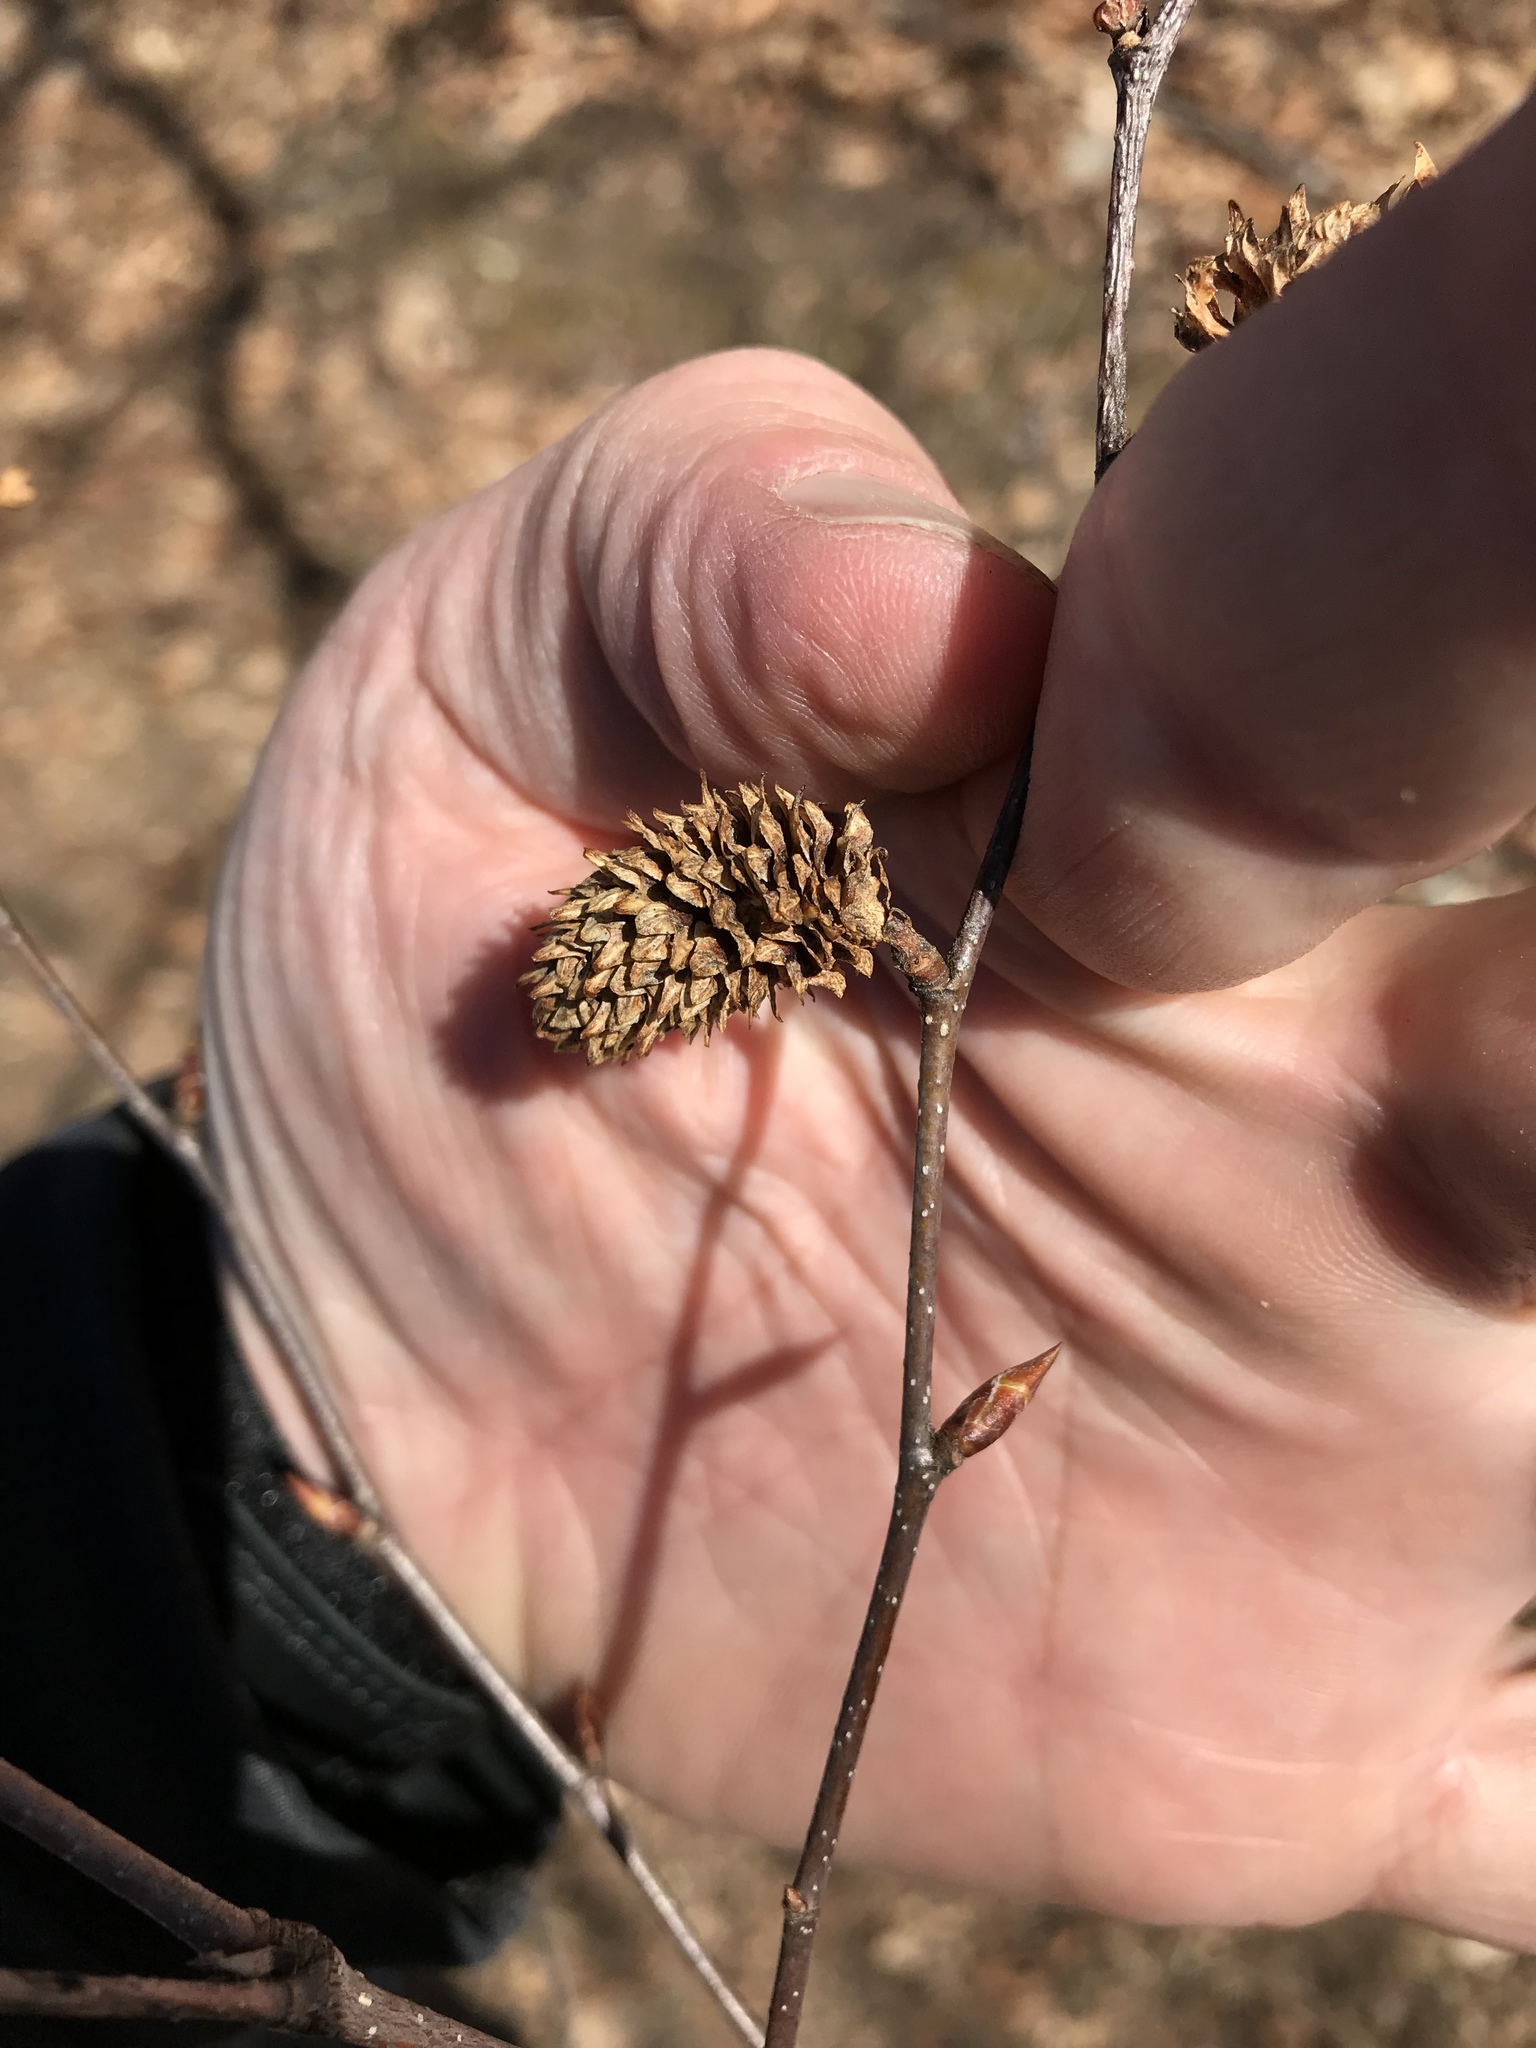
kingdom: Plantae
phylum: Tracheophyta
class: Magnoliopsida
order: Fagales
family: Betulaceae
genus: Betula
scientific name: Betula lenta
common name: Black birch
